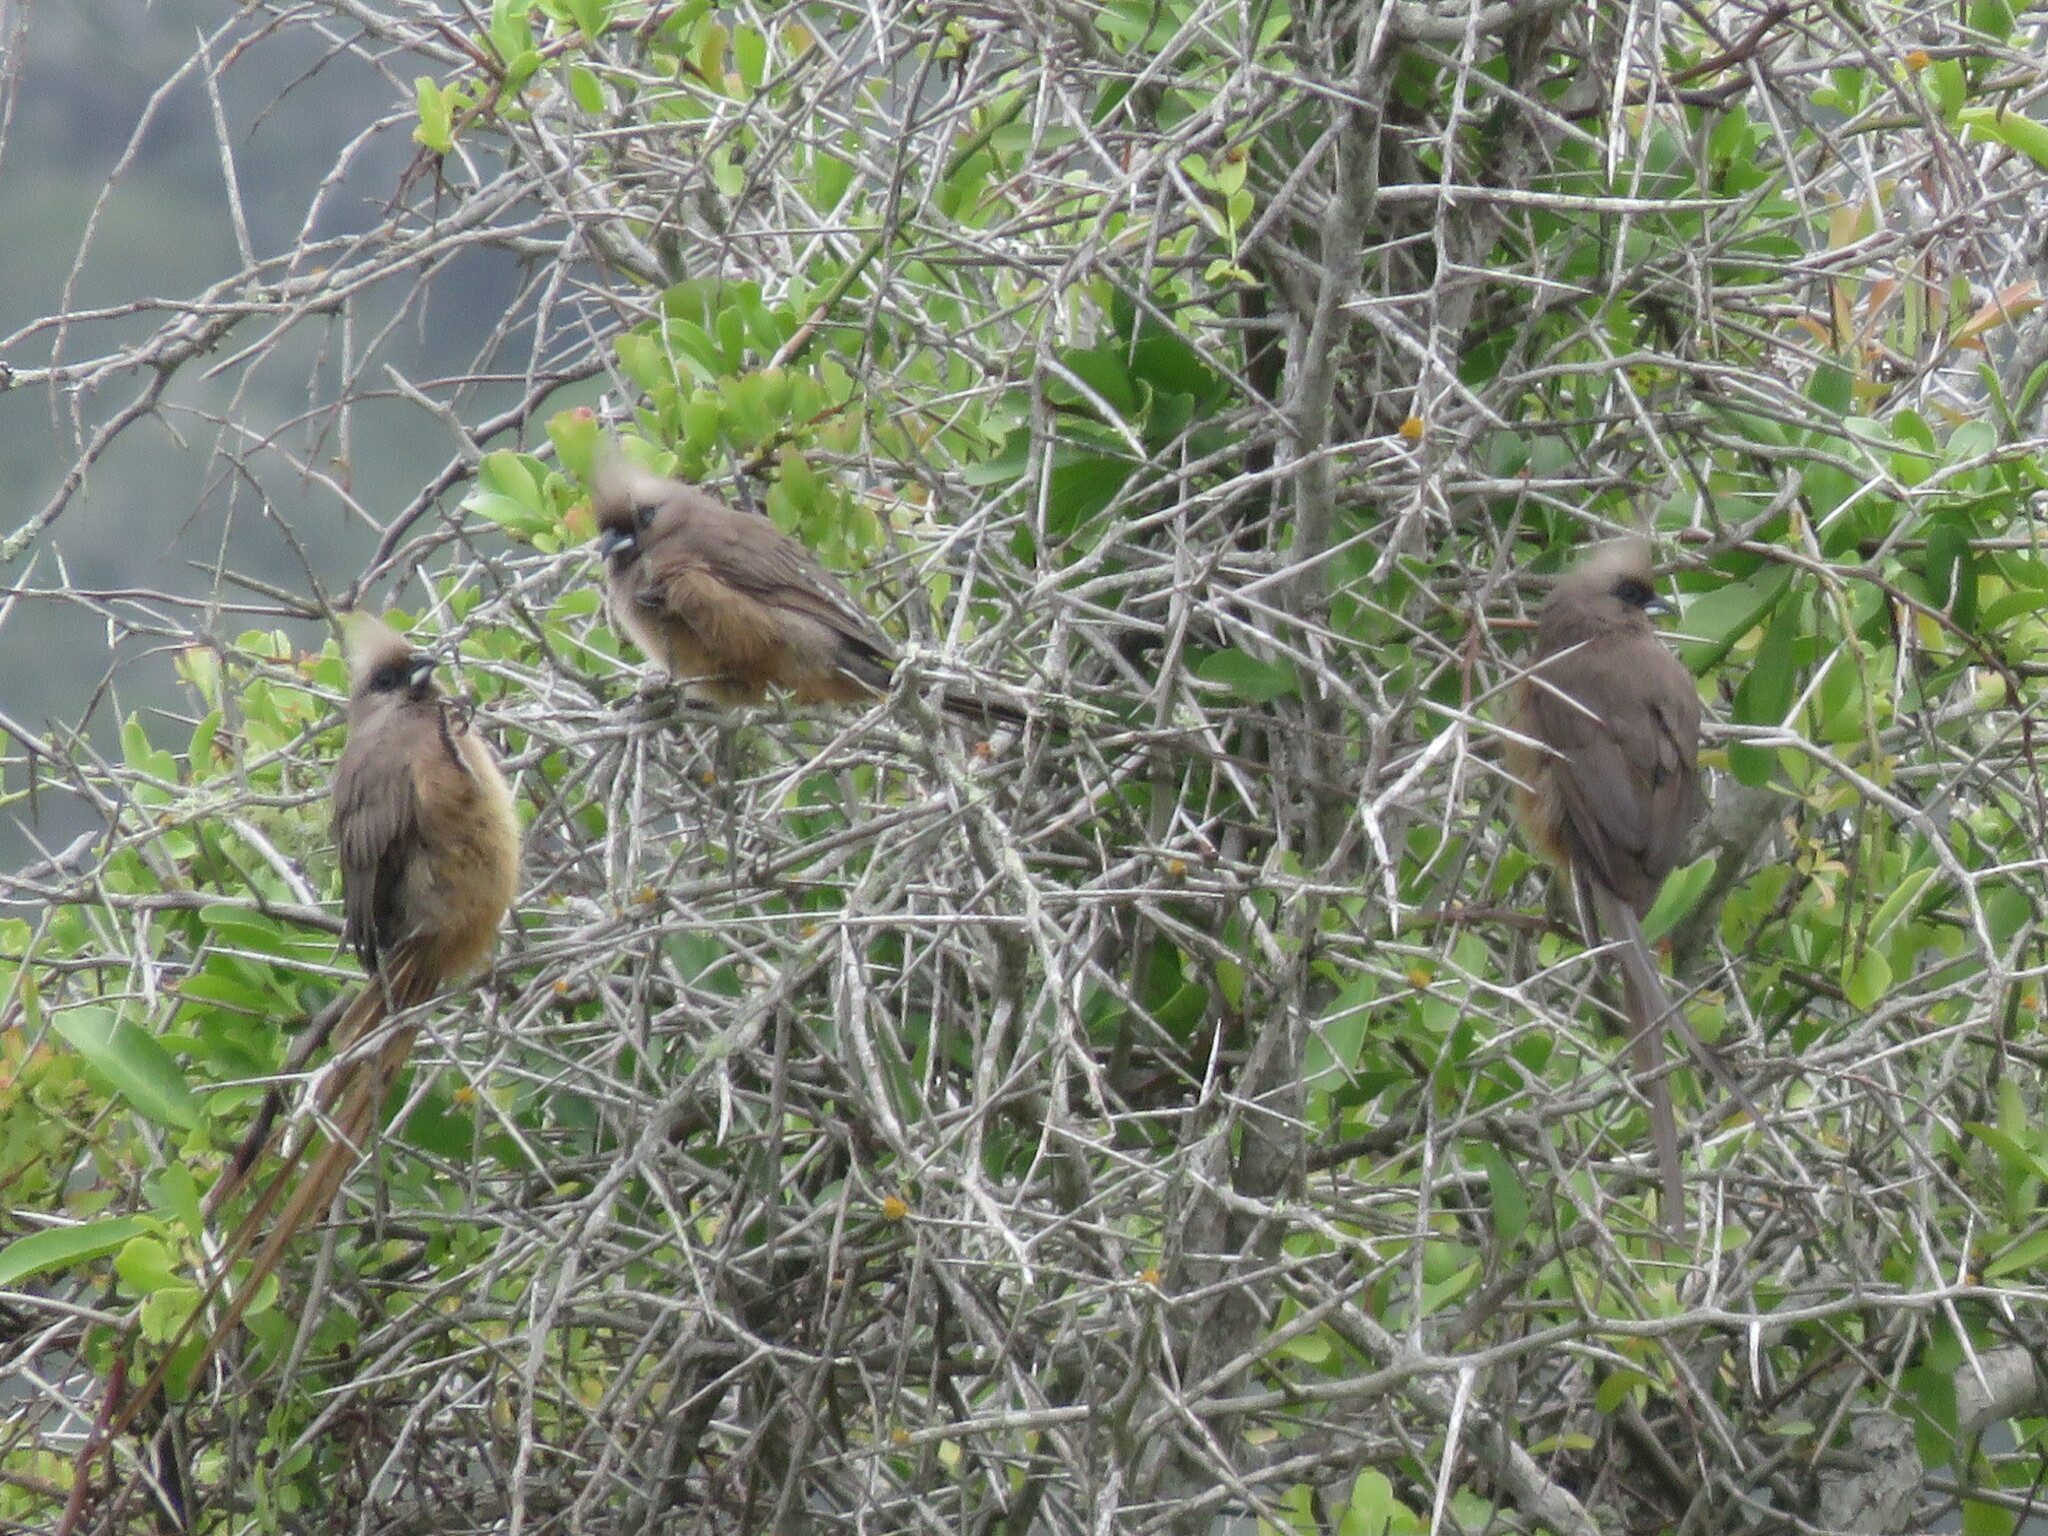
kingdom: Animalia
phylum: Chordata
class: Aves
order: Coliiformes
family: Coliidae
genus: Colius
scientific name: Colius striatus
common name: Speckled mousebird
